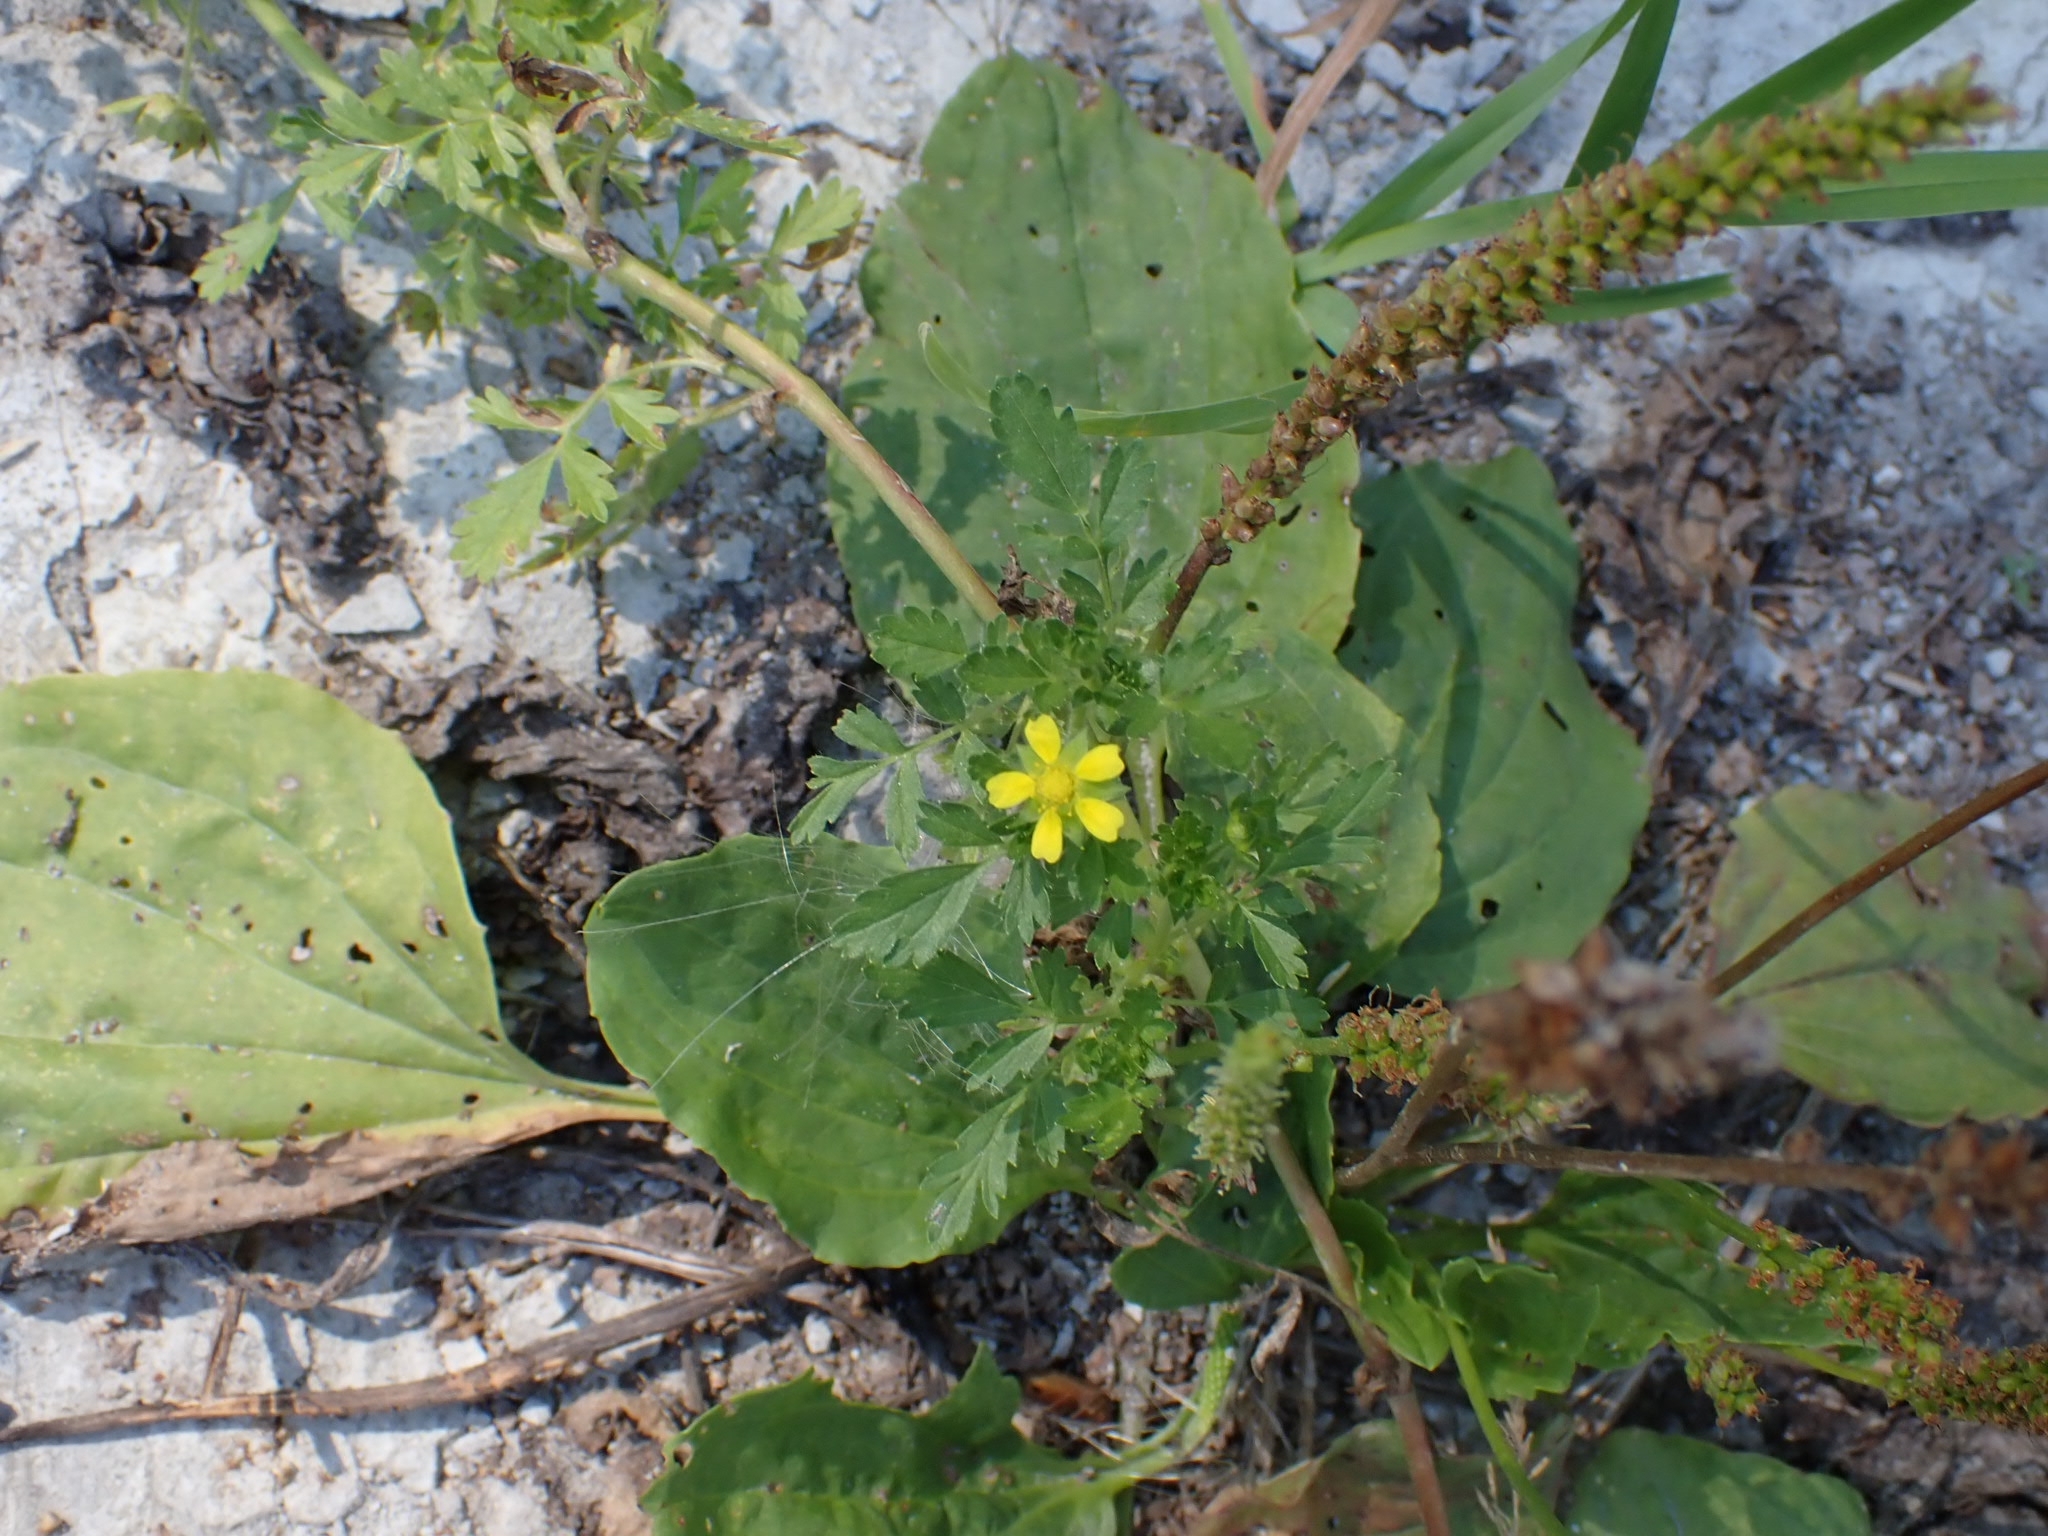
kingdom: Plantae
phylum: Tracheophyta
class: Magnoliopsida
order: Rosales
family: Rosaceae
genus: Potentilla
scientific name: Potentilla supina
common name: Prostrate cinquefoil
